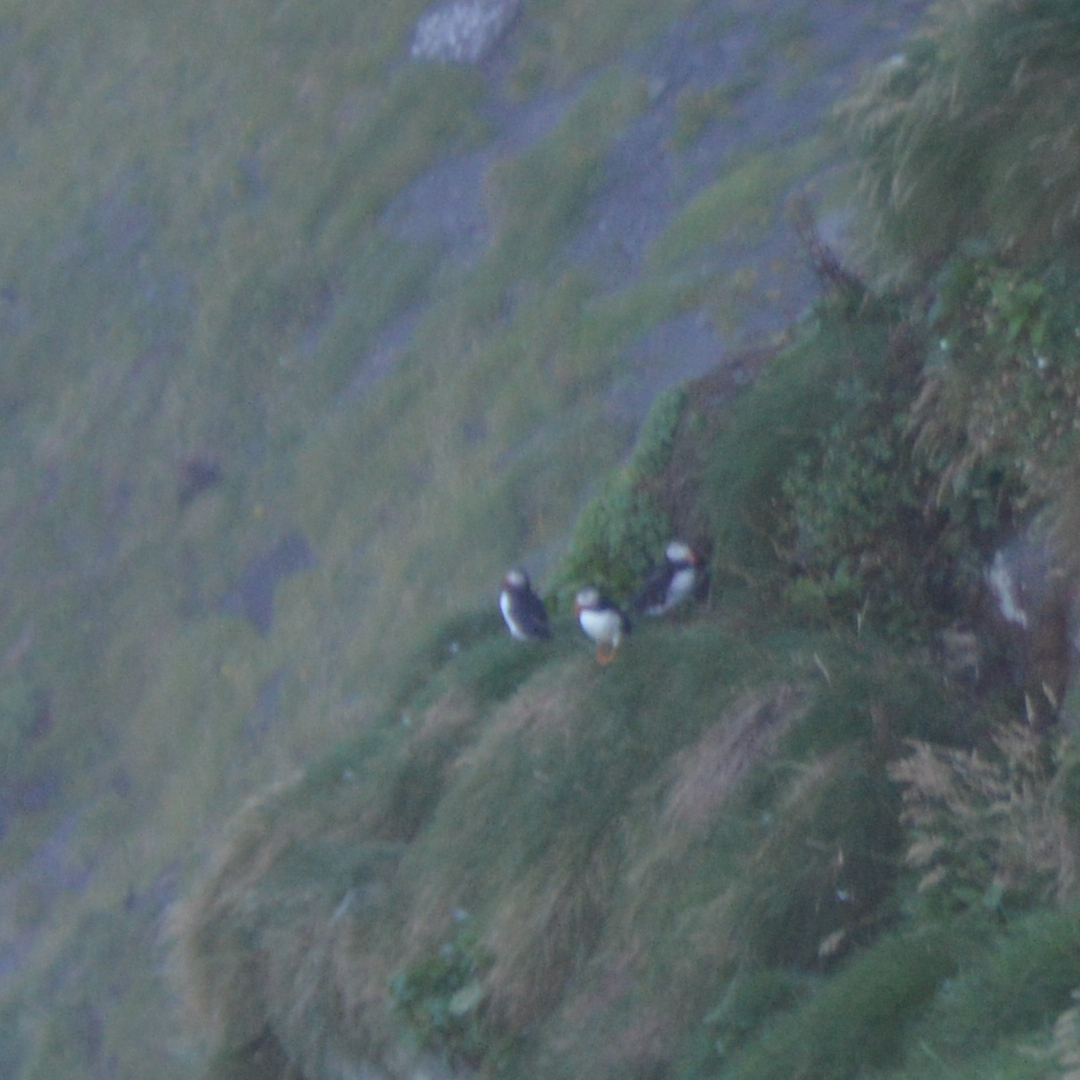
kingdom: Animalia
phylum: Chordata
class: Aves
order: Charadriiformes
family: Alcidae
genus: Fratercula
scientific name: Fratercula arctica
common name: Atlantic puffin
